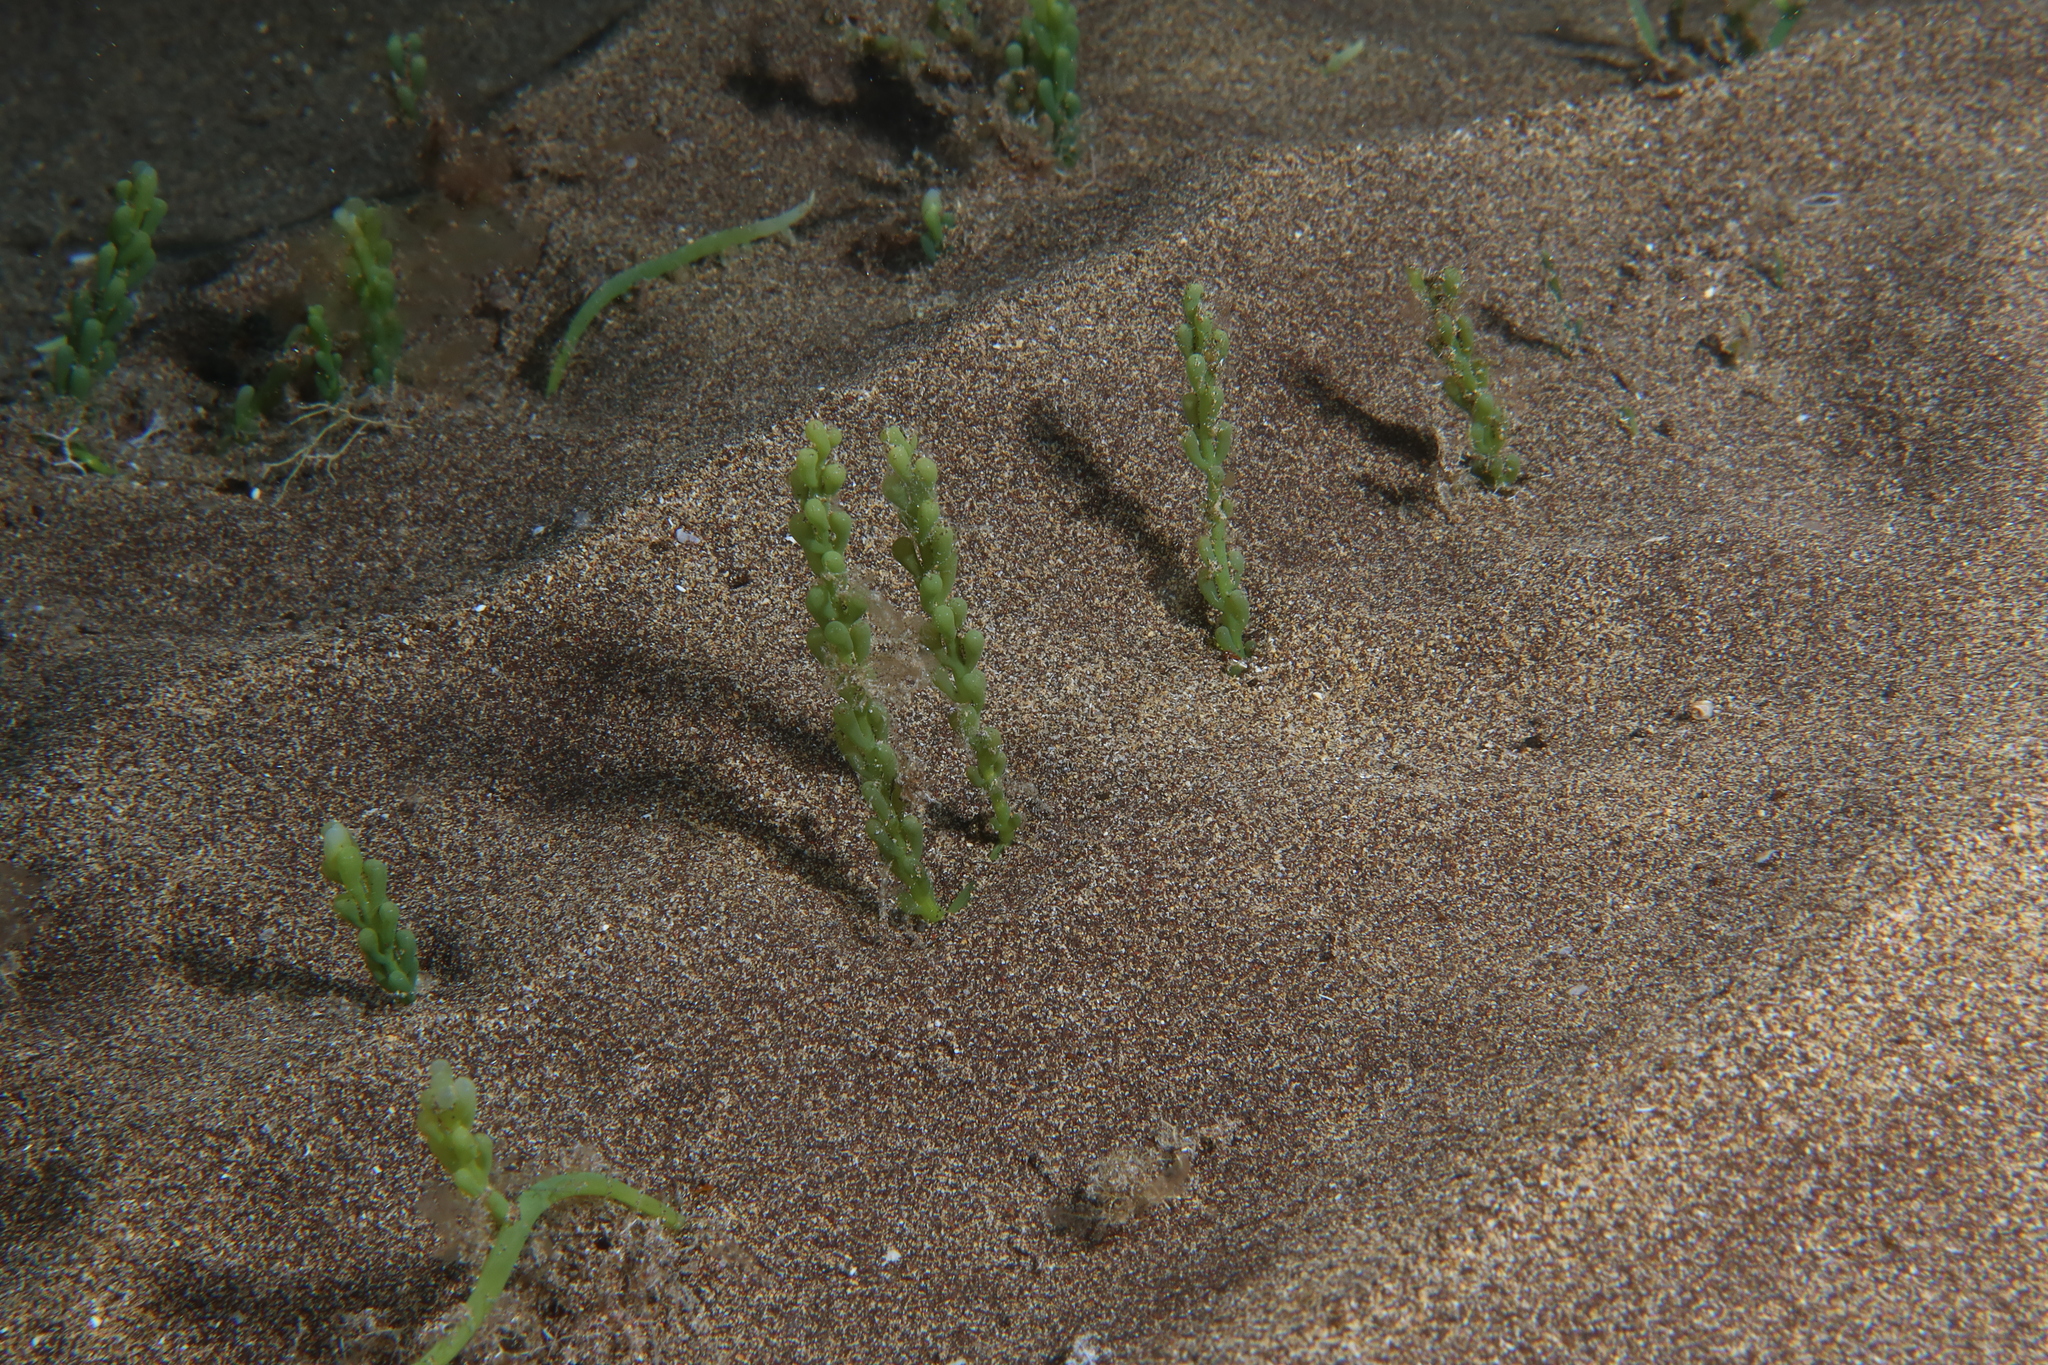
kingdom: Plantae
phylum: Chlorophyta
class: Ulvophyceae
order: Bryopsidales
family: Caulerpaceae
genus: Caulerpa
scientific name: Caulerpa racemosa
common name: Green grape algae
